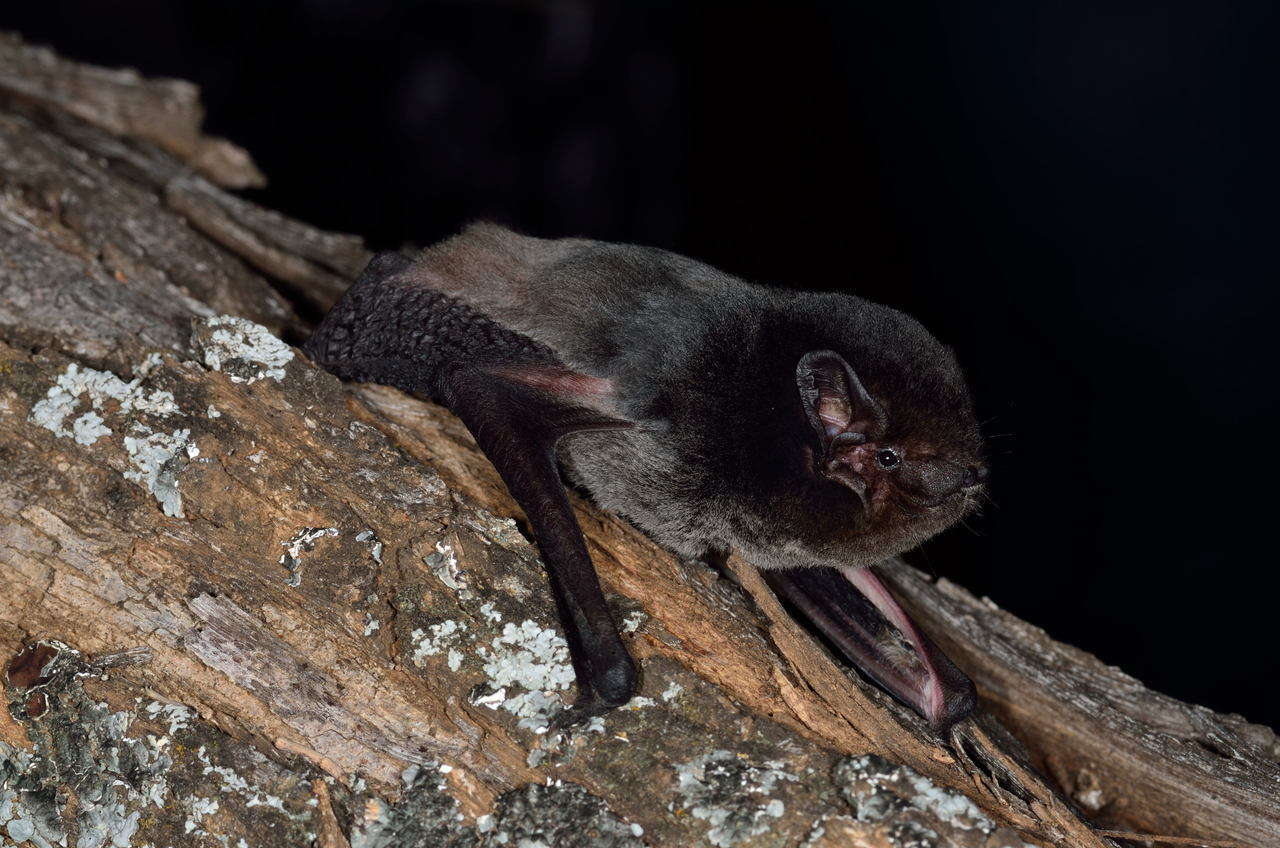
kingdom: Animalia
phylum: Chordata
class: Mammalia
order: Chiroptera
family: Vespertilionidae
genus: Chalinolobus
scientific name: Chalinolobus gouldii
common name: Gould's wattled bat
